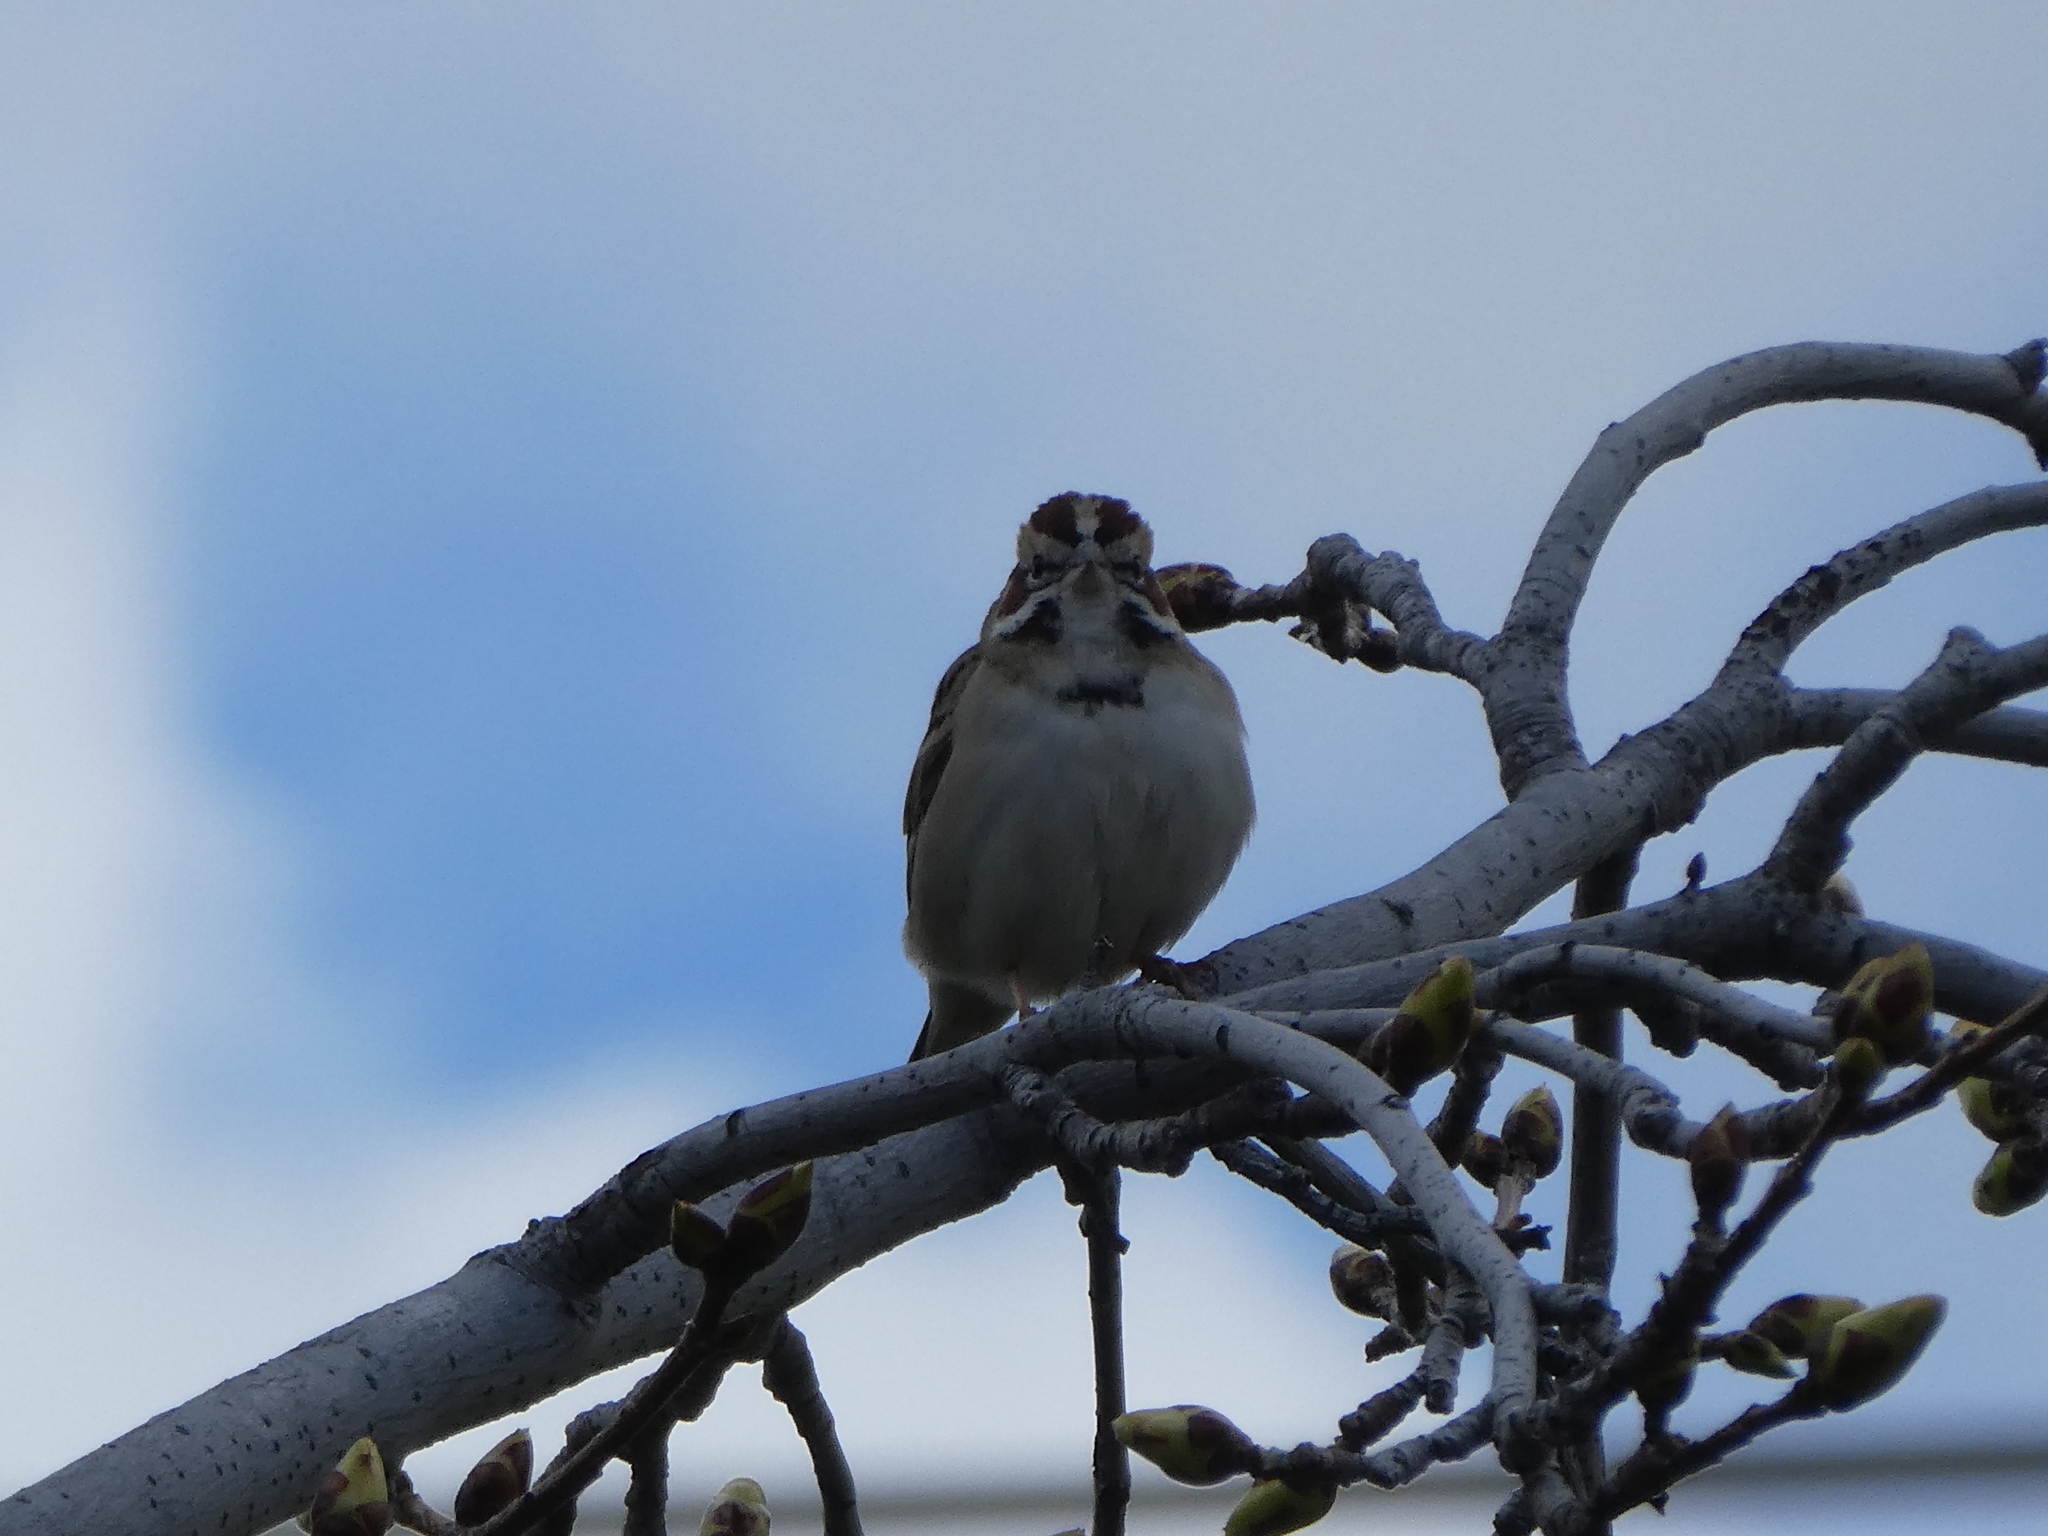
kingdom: Animalia
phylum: Chordata
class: Aves
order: Passeriformes
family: Passerellidae
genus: Chondestes
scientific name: Chondestes grammacus
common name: Lark sparrow
